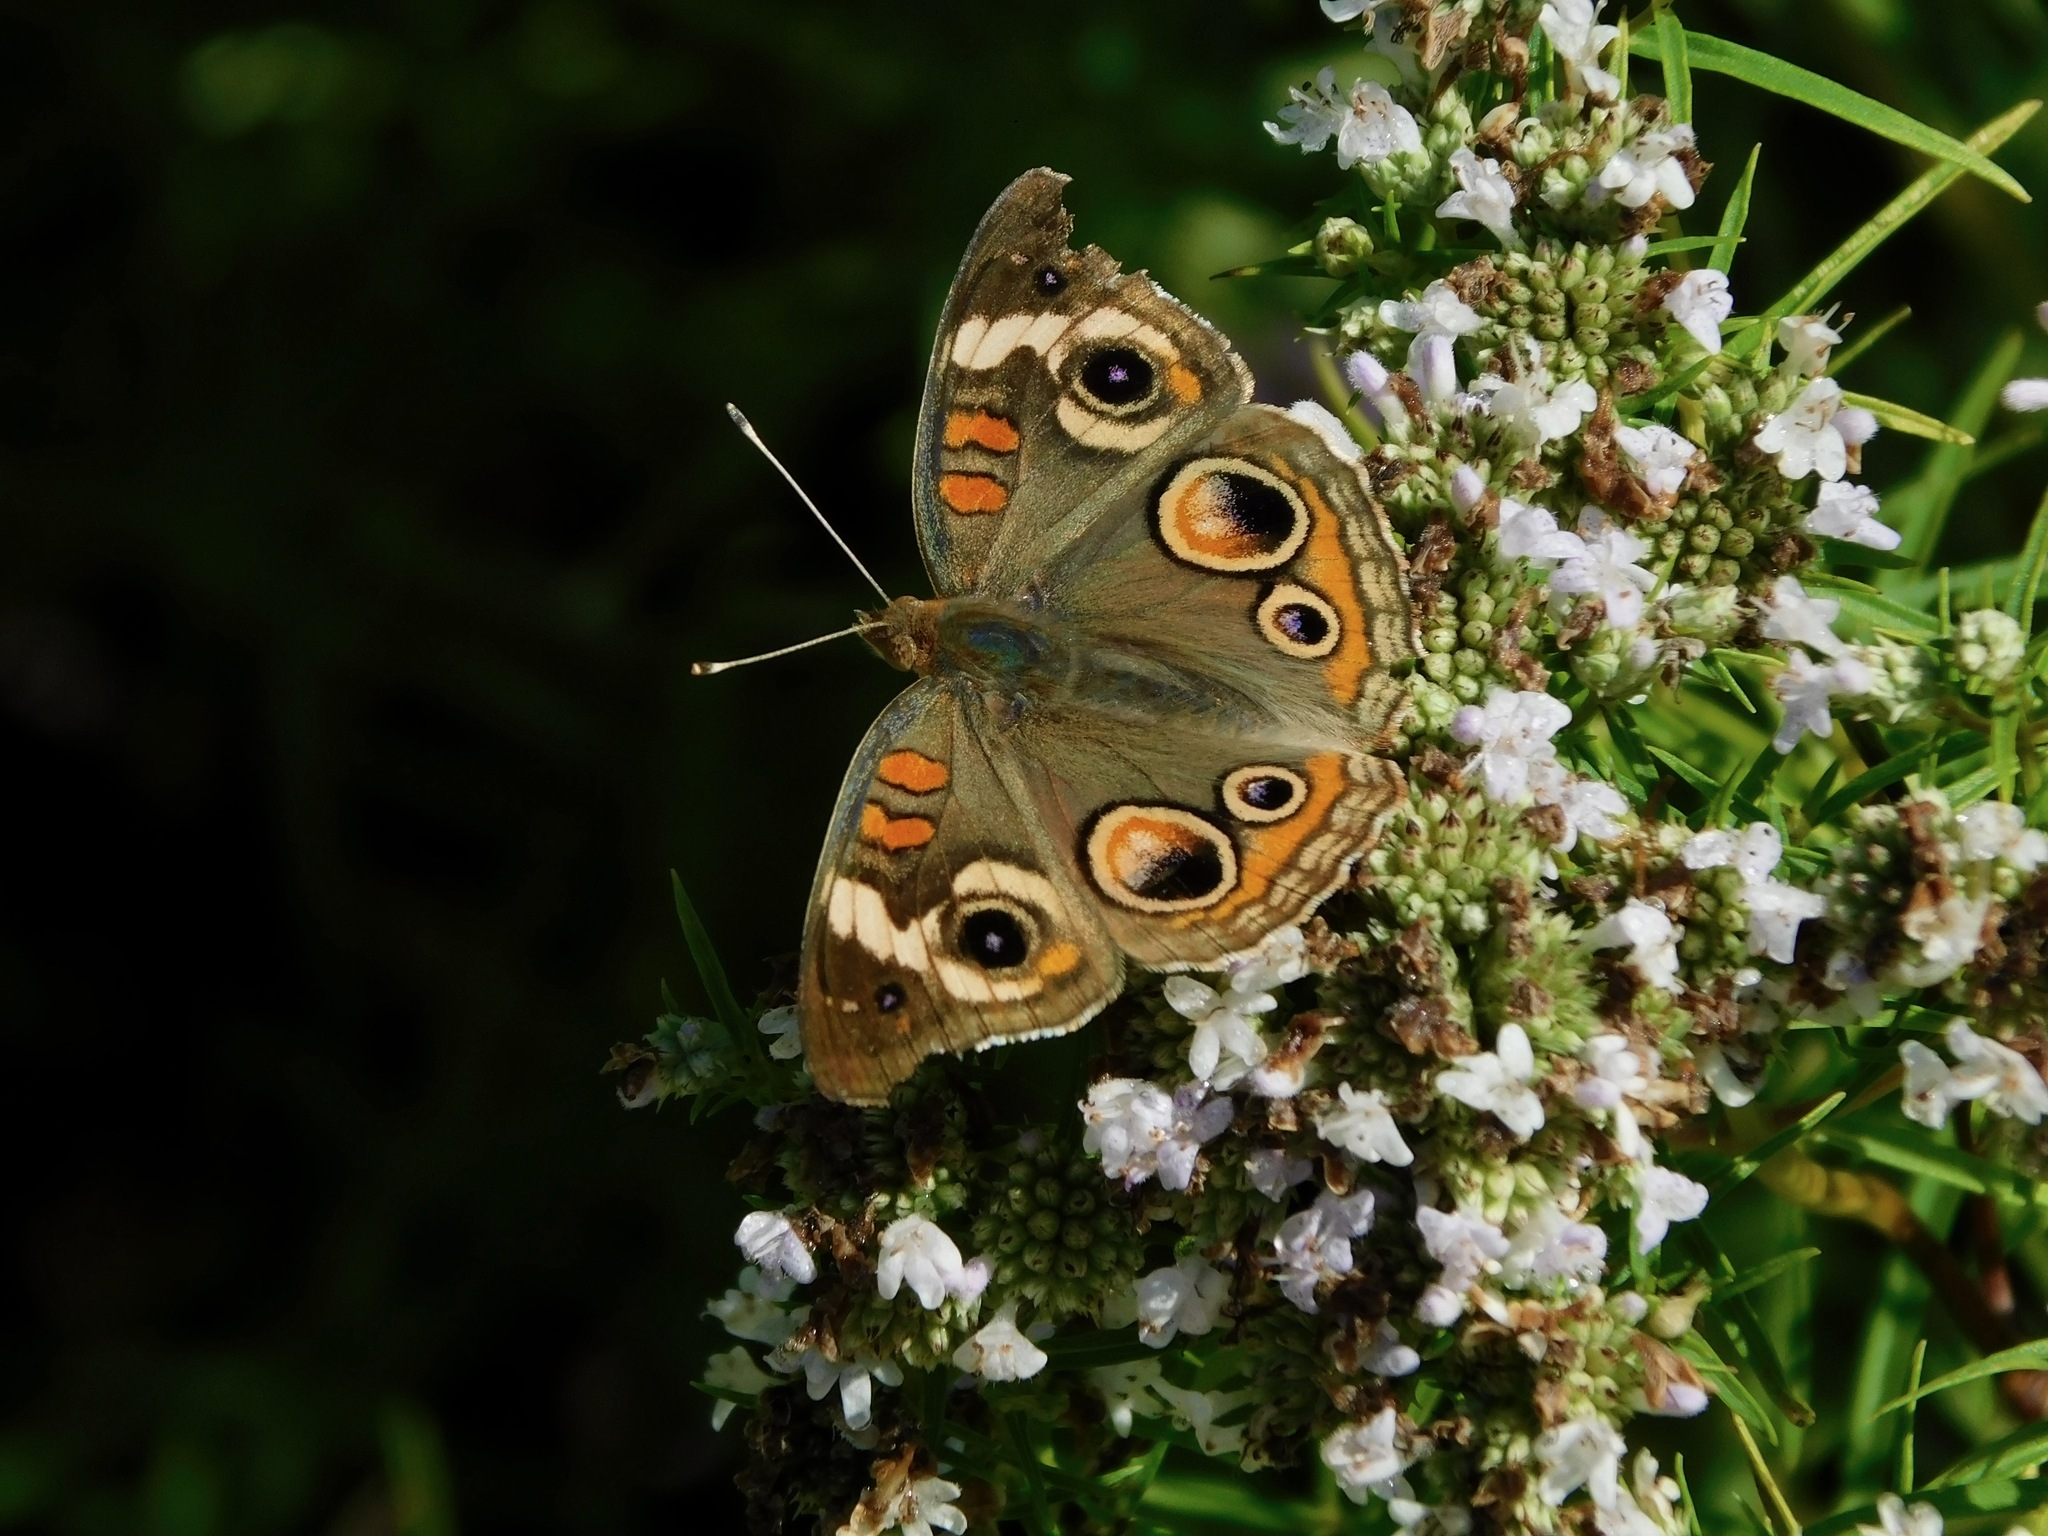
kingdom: Animalia
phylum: Arthropoda
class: Insecta
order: Lepidoptera
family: Nymphalidae
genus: Junonia
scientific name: Junonia coenia
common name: Common buckeye
